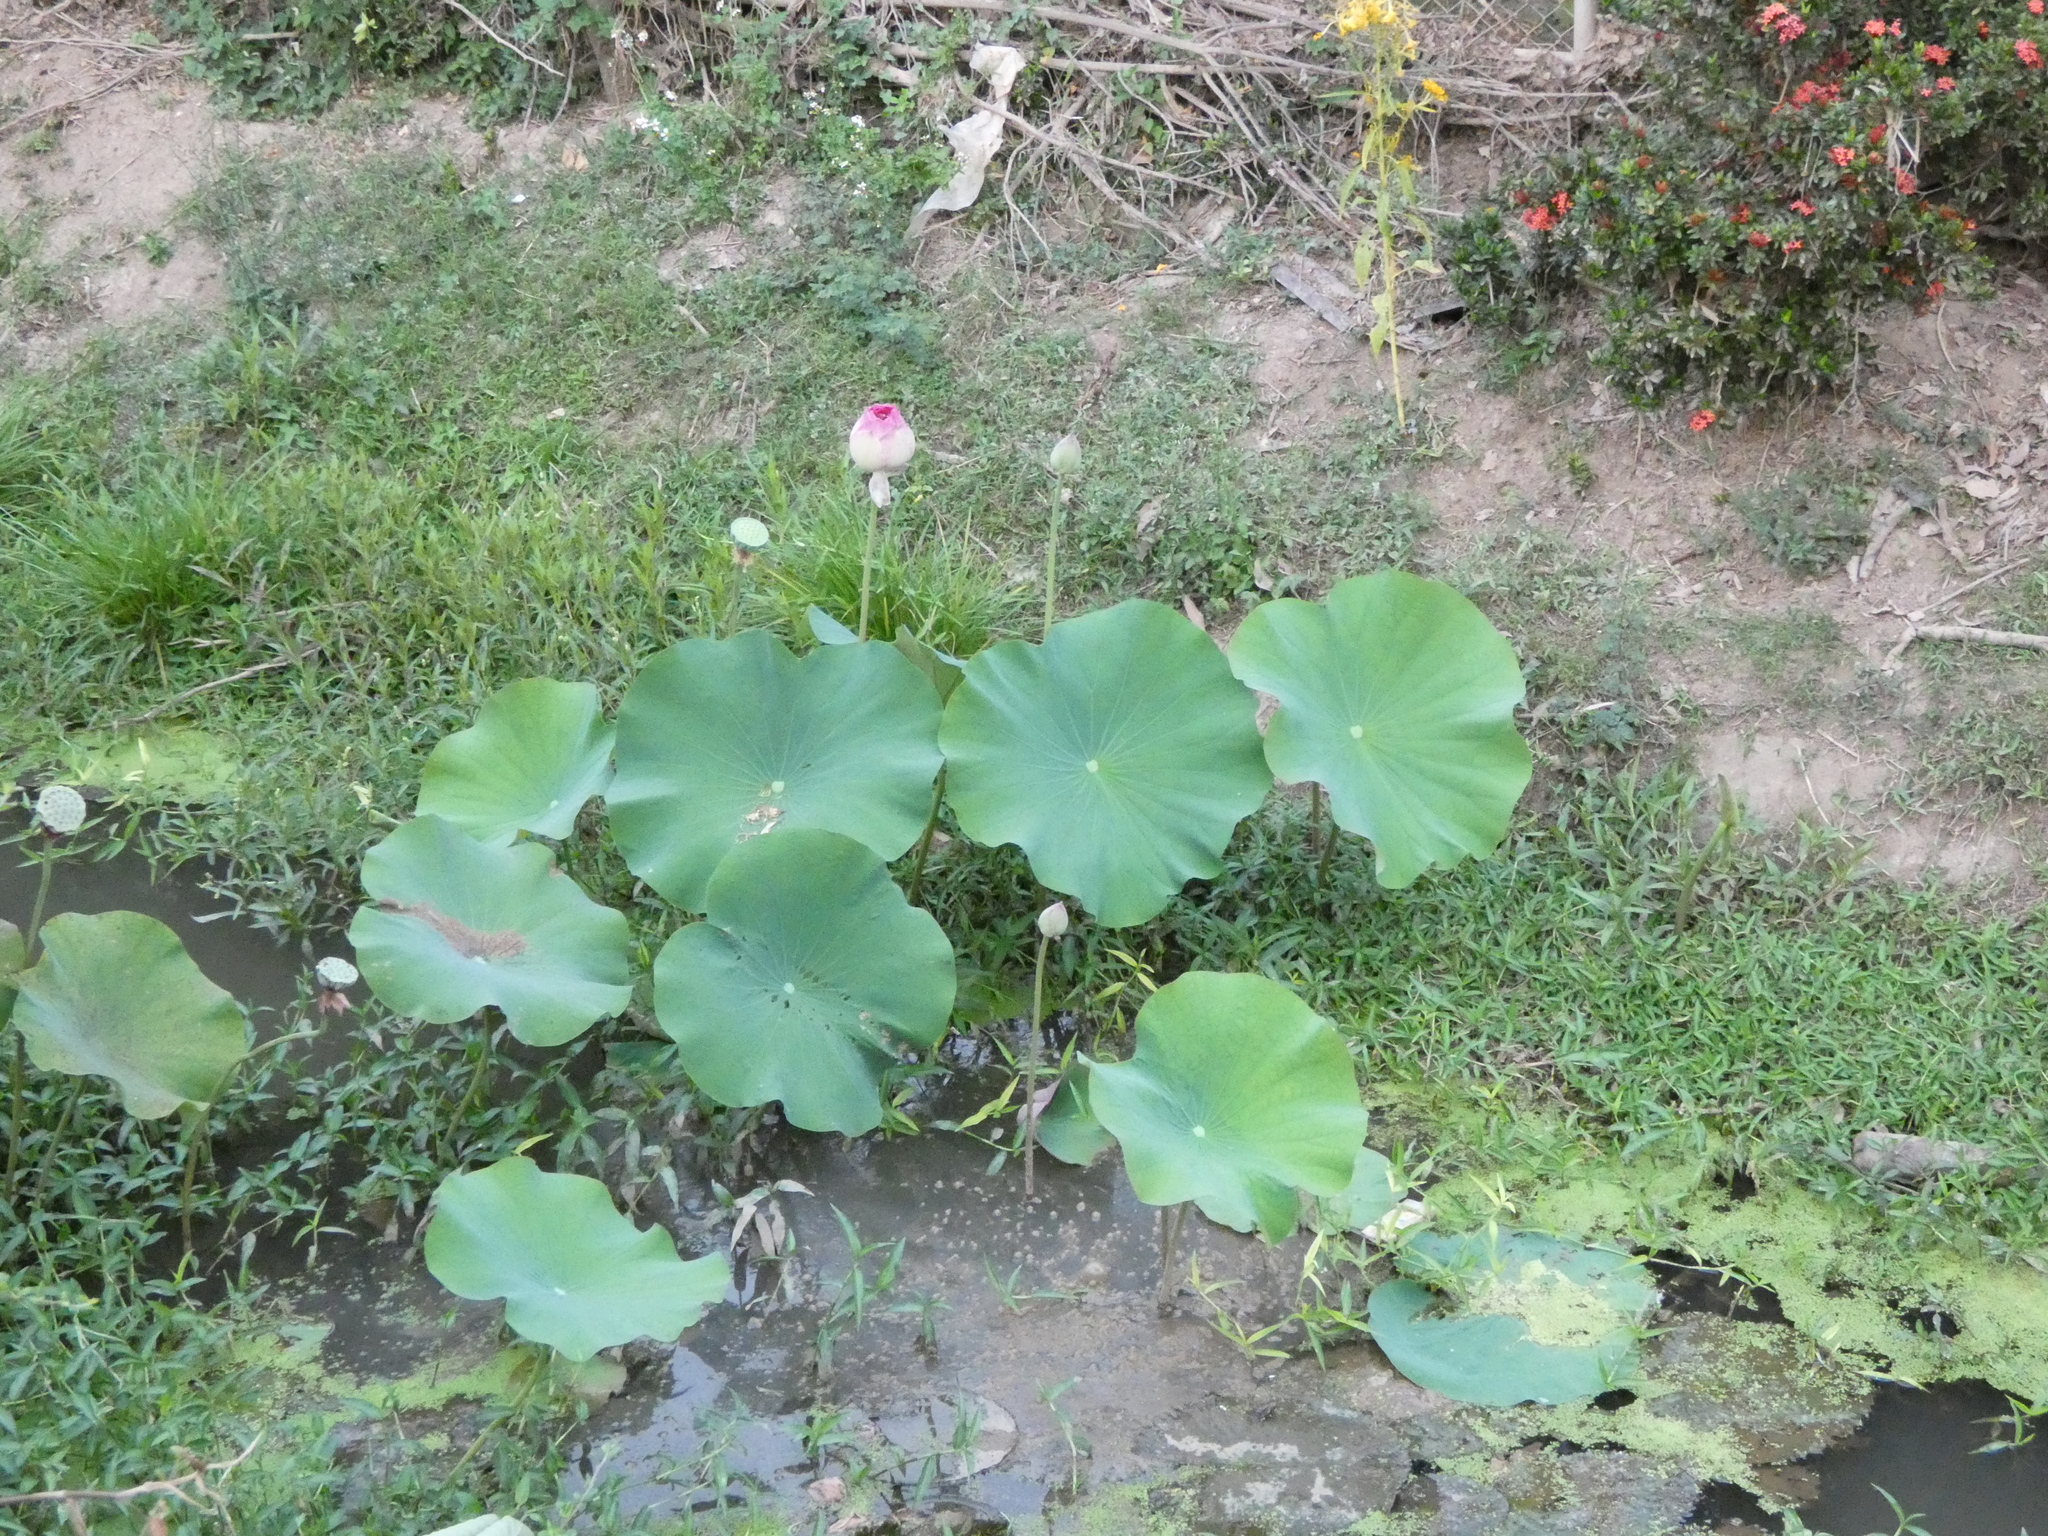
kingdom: Plantae
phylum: Tracheophyta
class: Magnoliopsida
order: Proteales
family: Nelumbonaceae
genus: Nelumbo
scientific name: Nelumbo nucifera
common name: Sacred lotus
